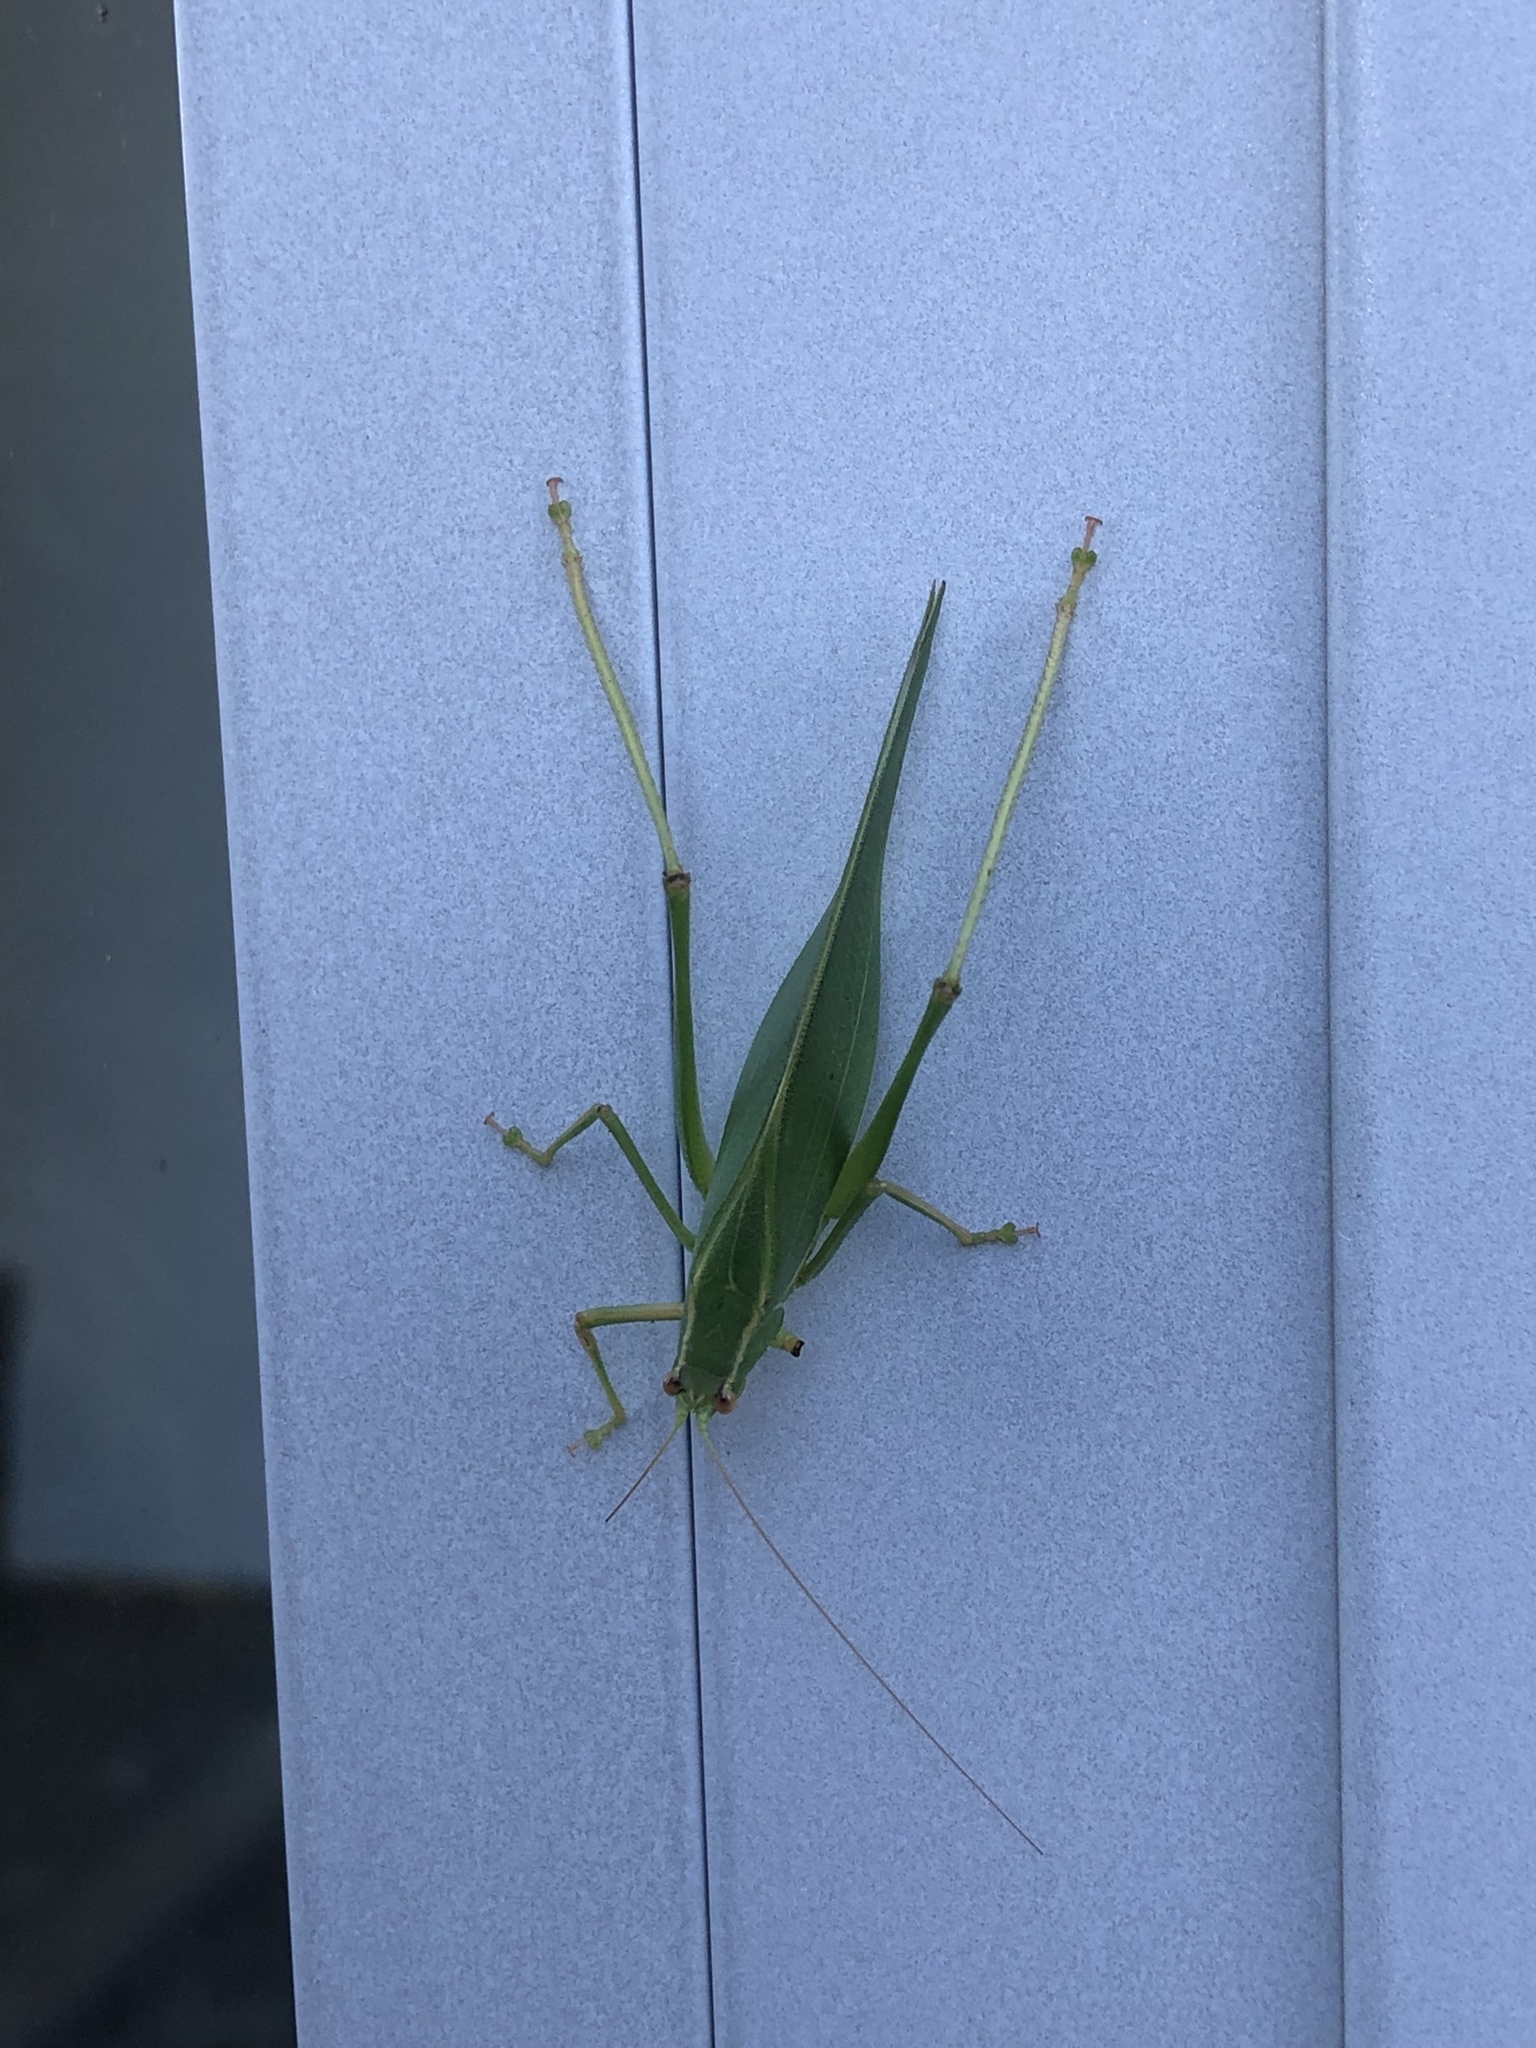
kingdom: Animalia
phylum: Arthropoda
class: Insecta
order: Orthoptera
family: Tettigoniidae
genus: Caedicia
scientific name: Caedicia simplex
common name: Common garden katydid
